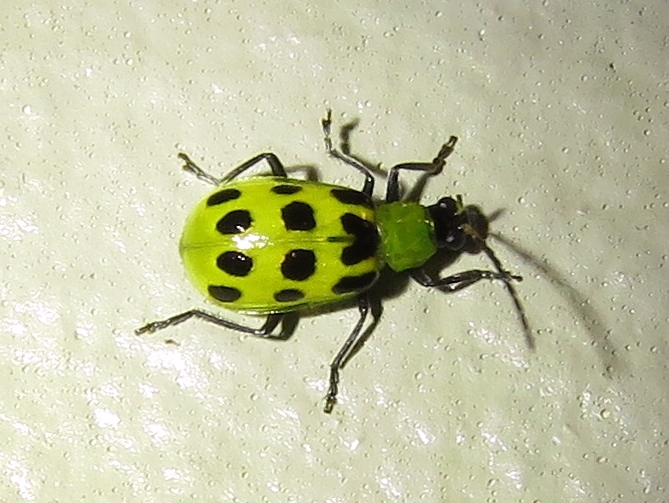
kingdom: Animalia
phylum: Arthropoda
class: Insecta
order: Coleoptera
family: Chrysomelidae
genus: Diabrotica
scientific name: Diabrotica undecimpunctata
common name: Spotted cucumber beetle
